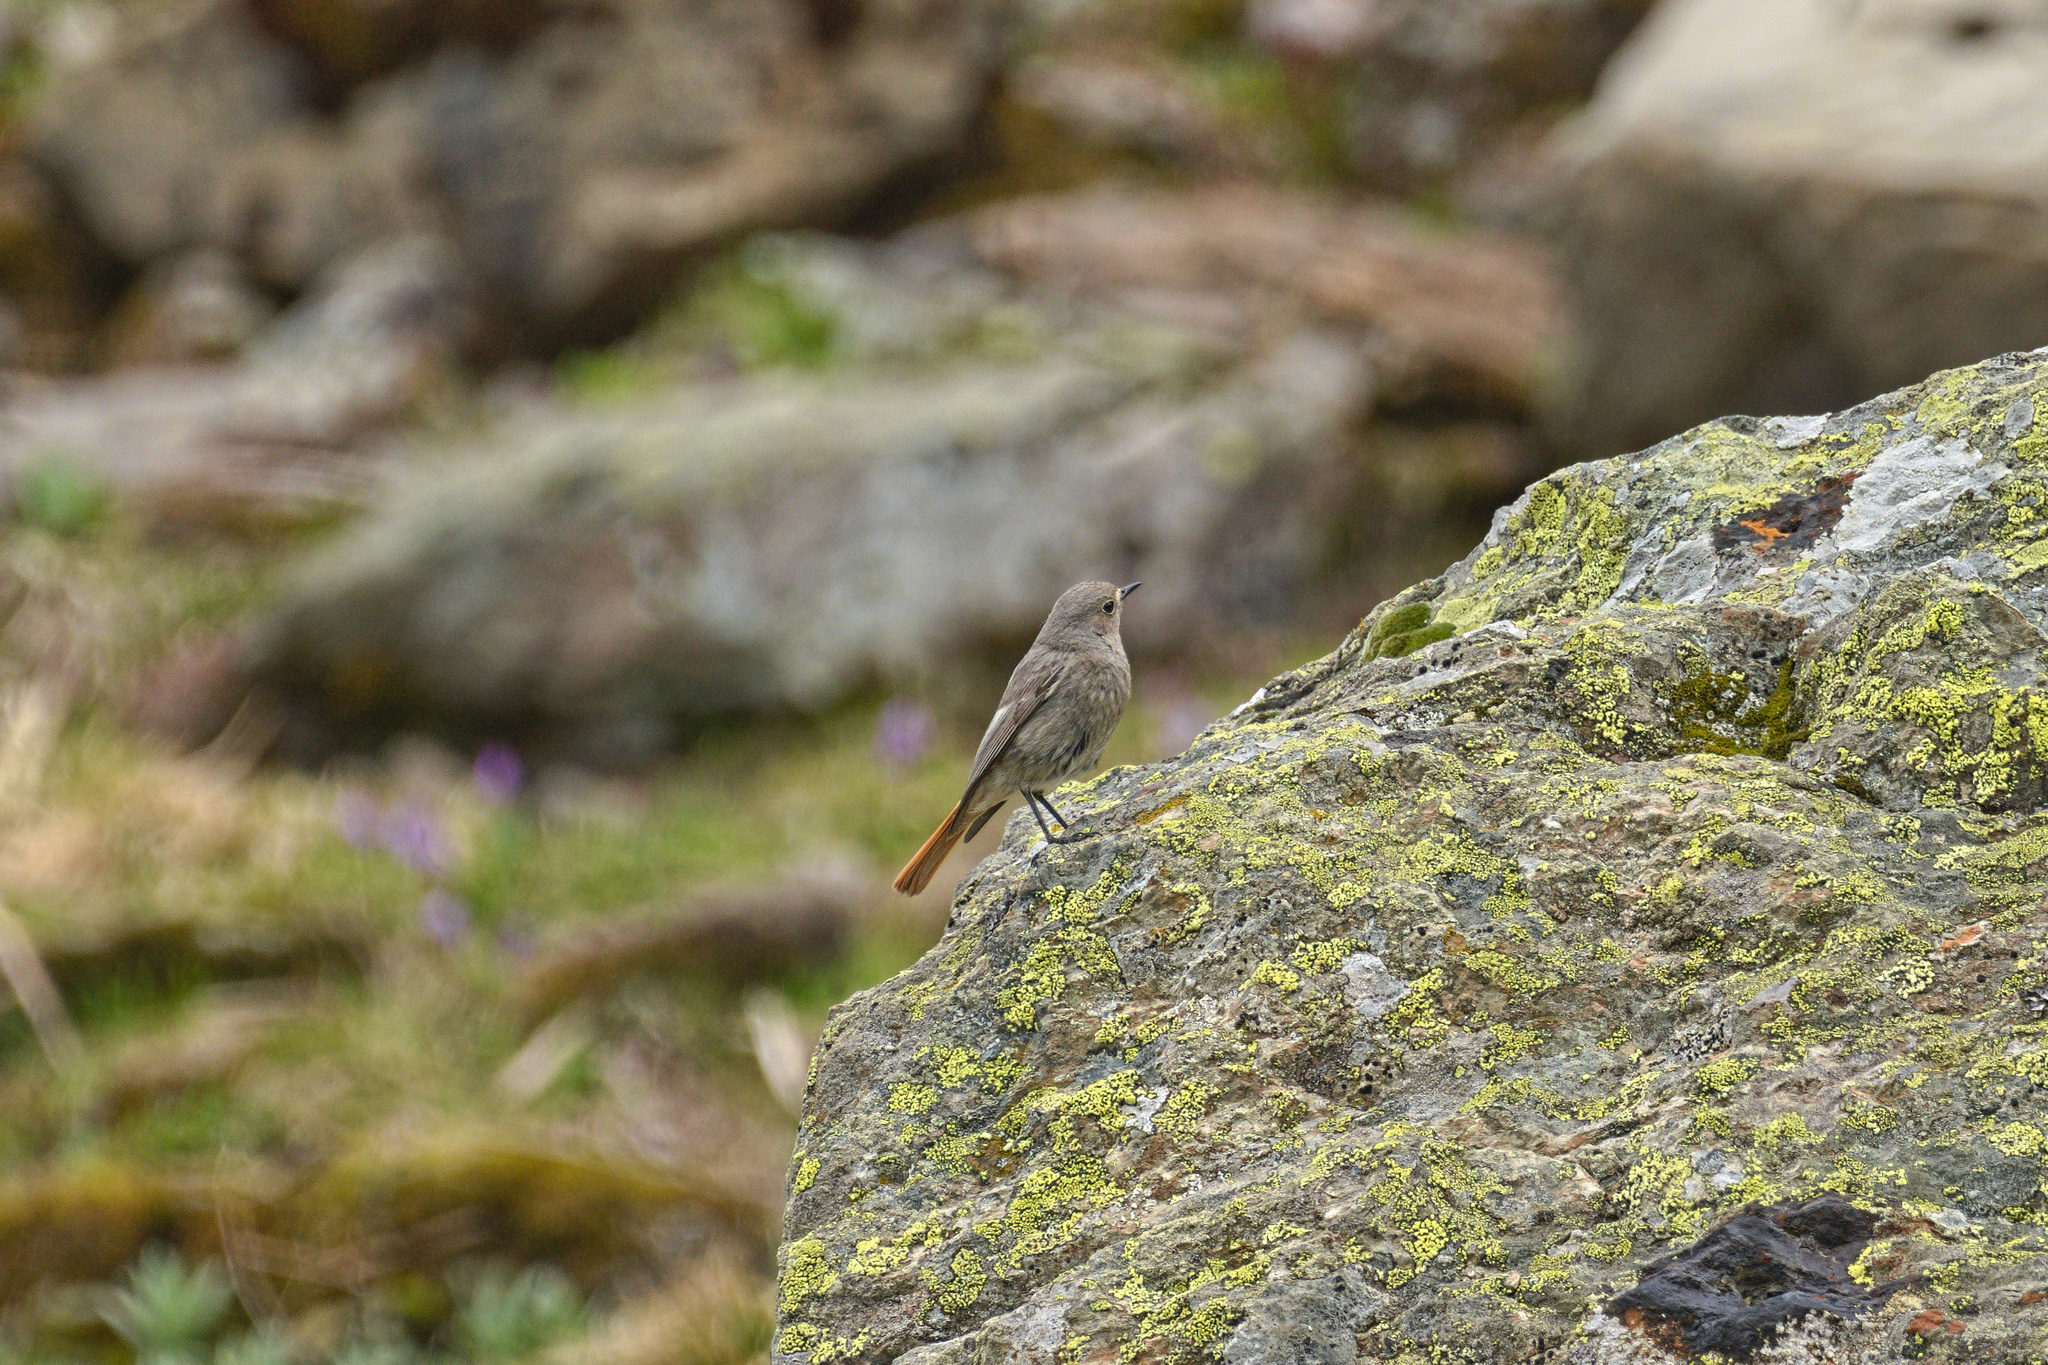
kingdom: Animalia
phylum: Chordata
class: Aves
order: Passeriformes
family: Muscicapidae
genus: Phoenicurus
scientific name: Phoenicurus ochruros
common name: Black redstart
